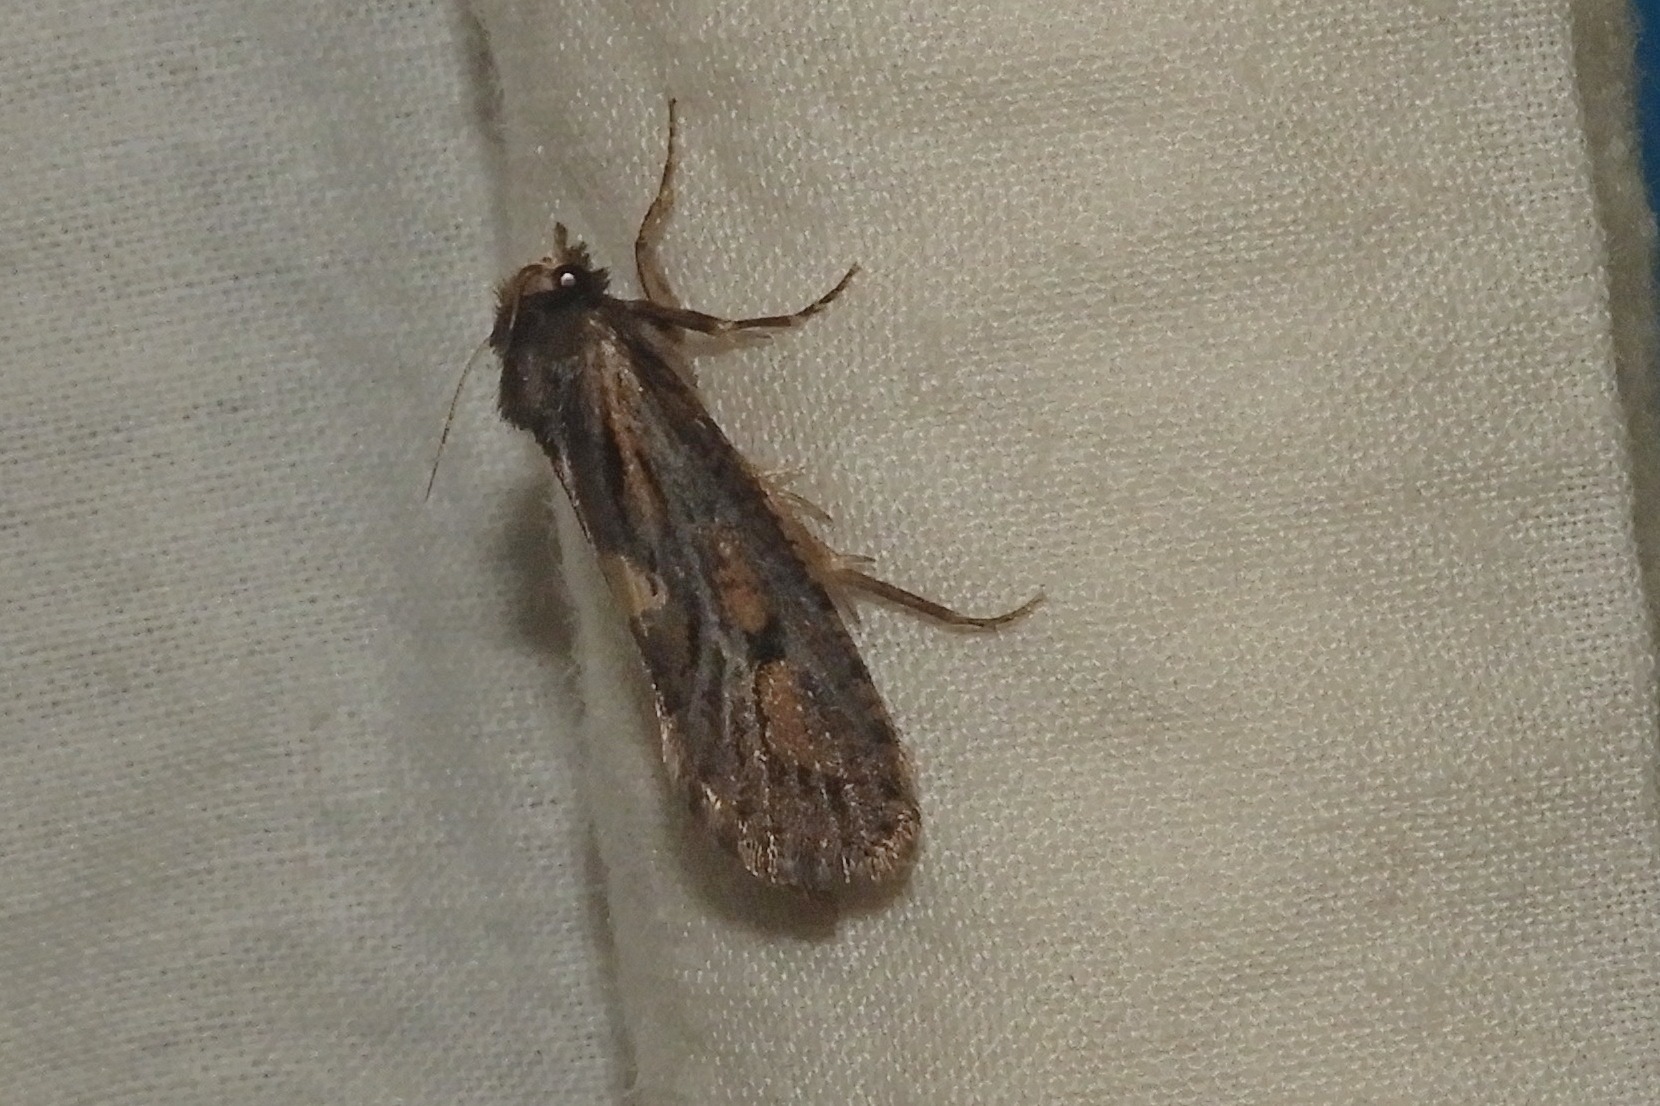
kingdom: Animalia
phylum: Arthropoda
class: Insecta
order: Lepidoptera
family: Tineidae
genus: Acrolophus
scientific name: Acrolophus popeanella
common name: Clemens' grass tubeworm moth
